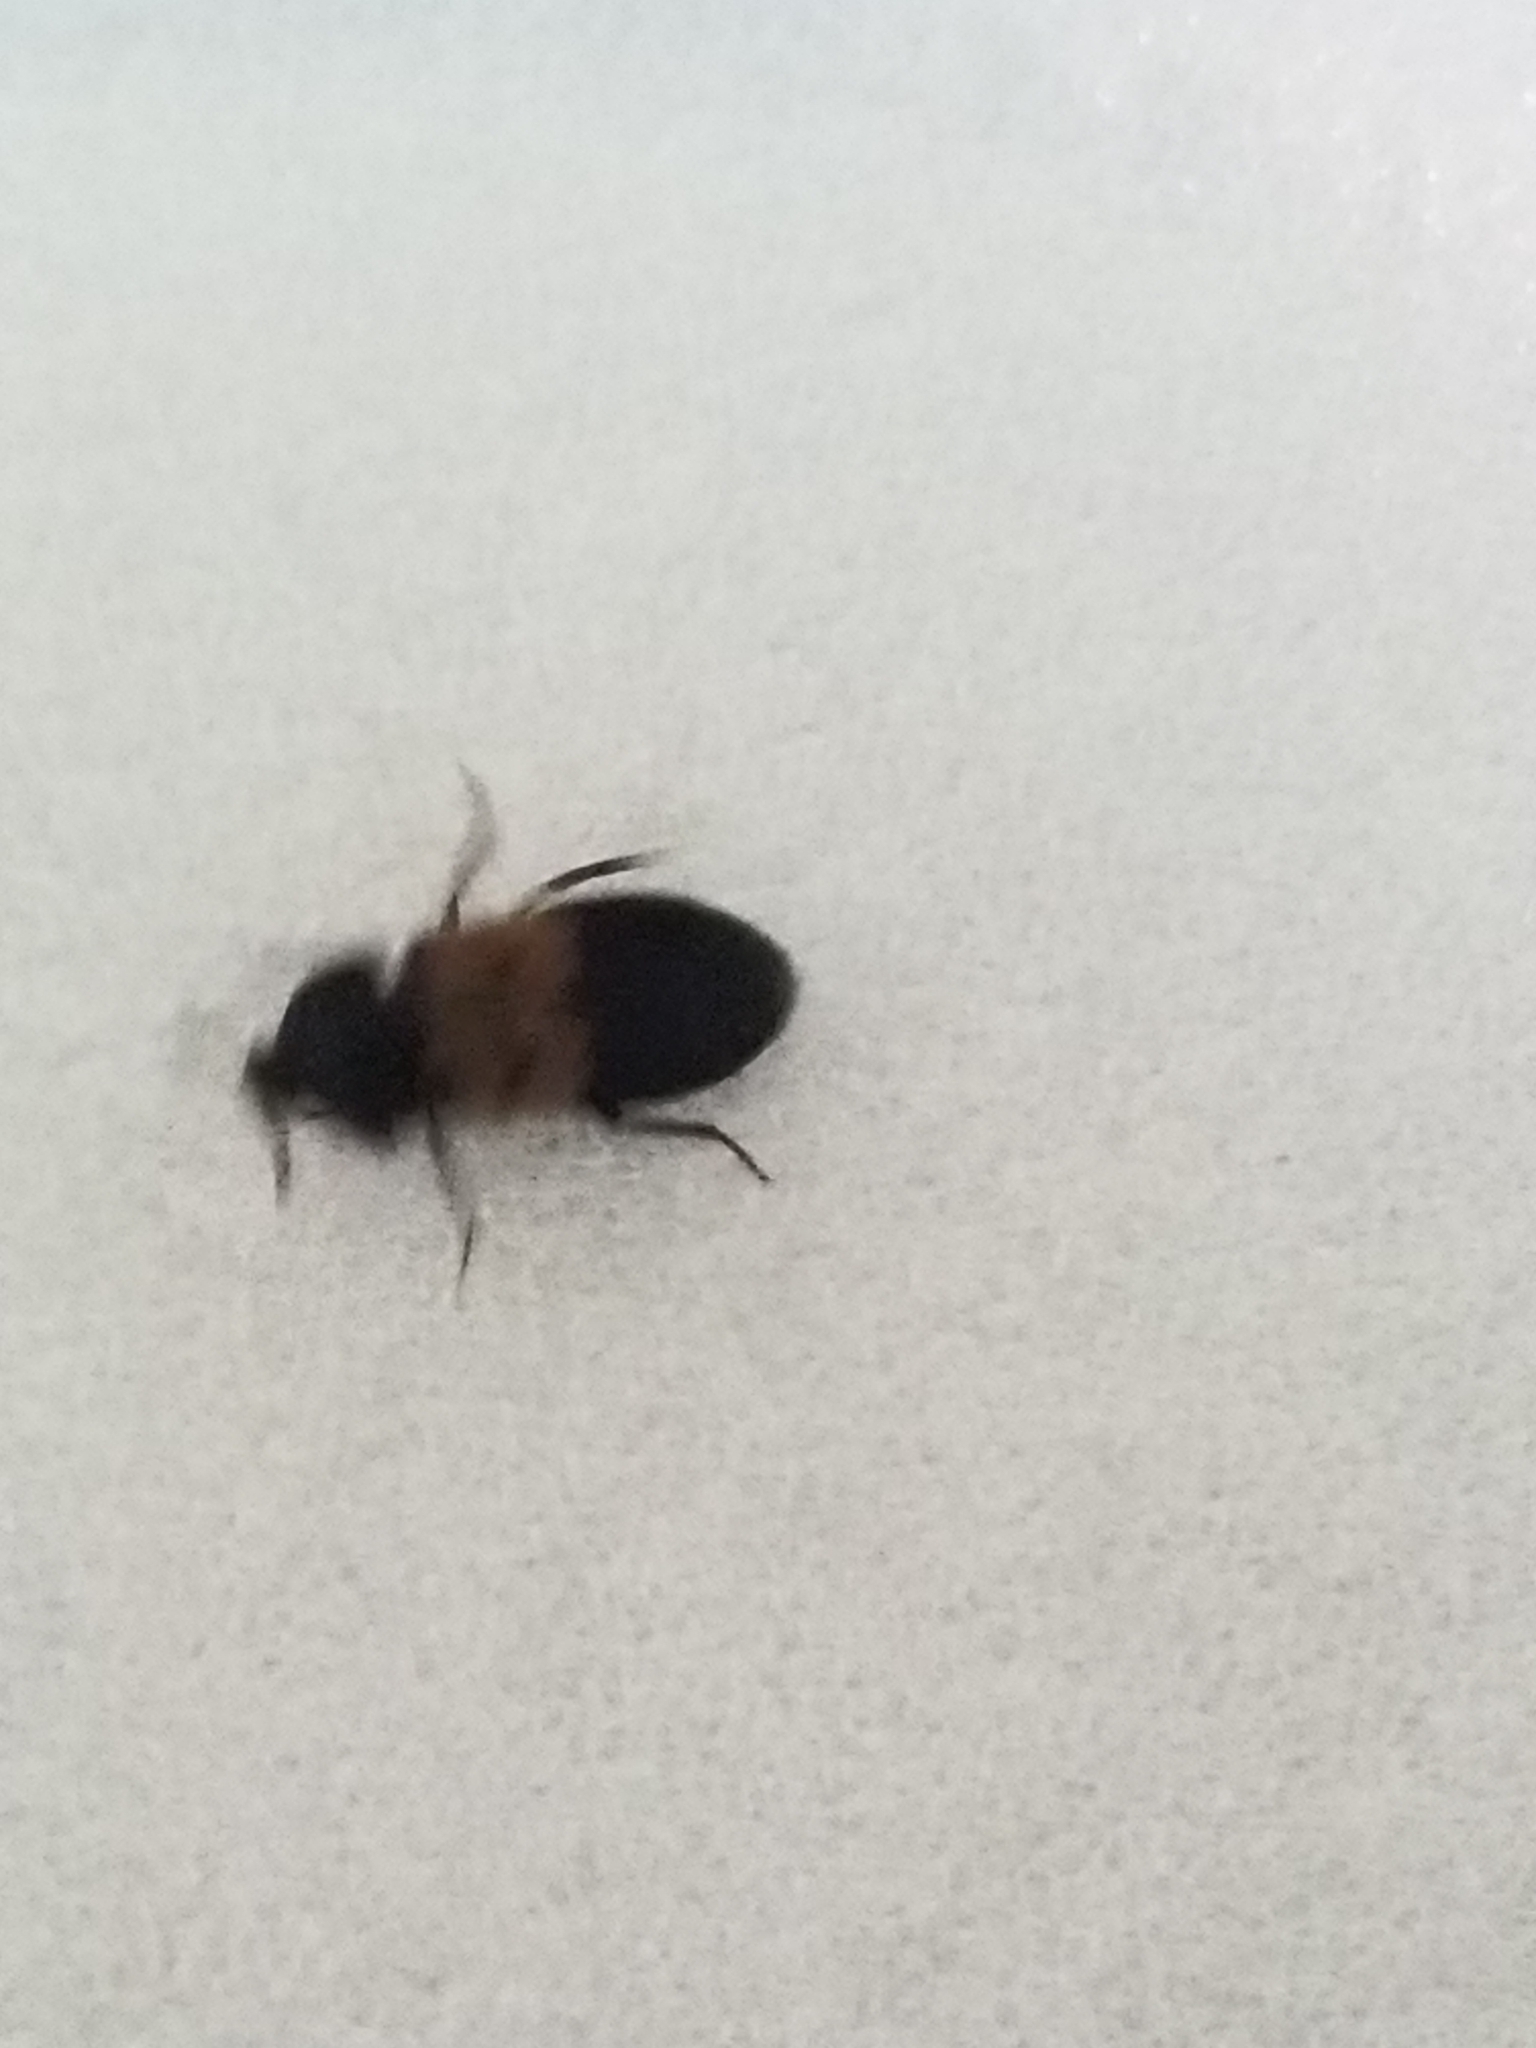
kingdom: Animalia
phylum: Arthropoda
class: Insecta
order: Coleoptera
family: Dermestidae
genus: Dermestes
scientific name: Dermestes lardarius
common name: Larder beetle
